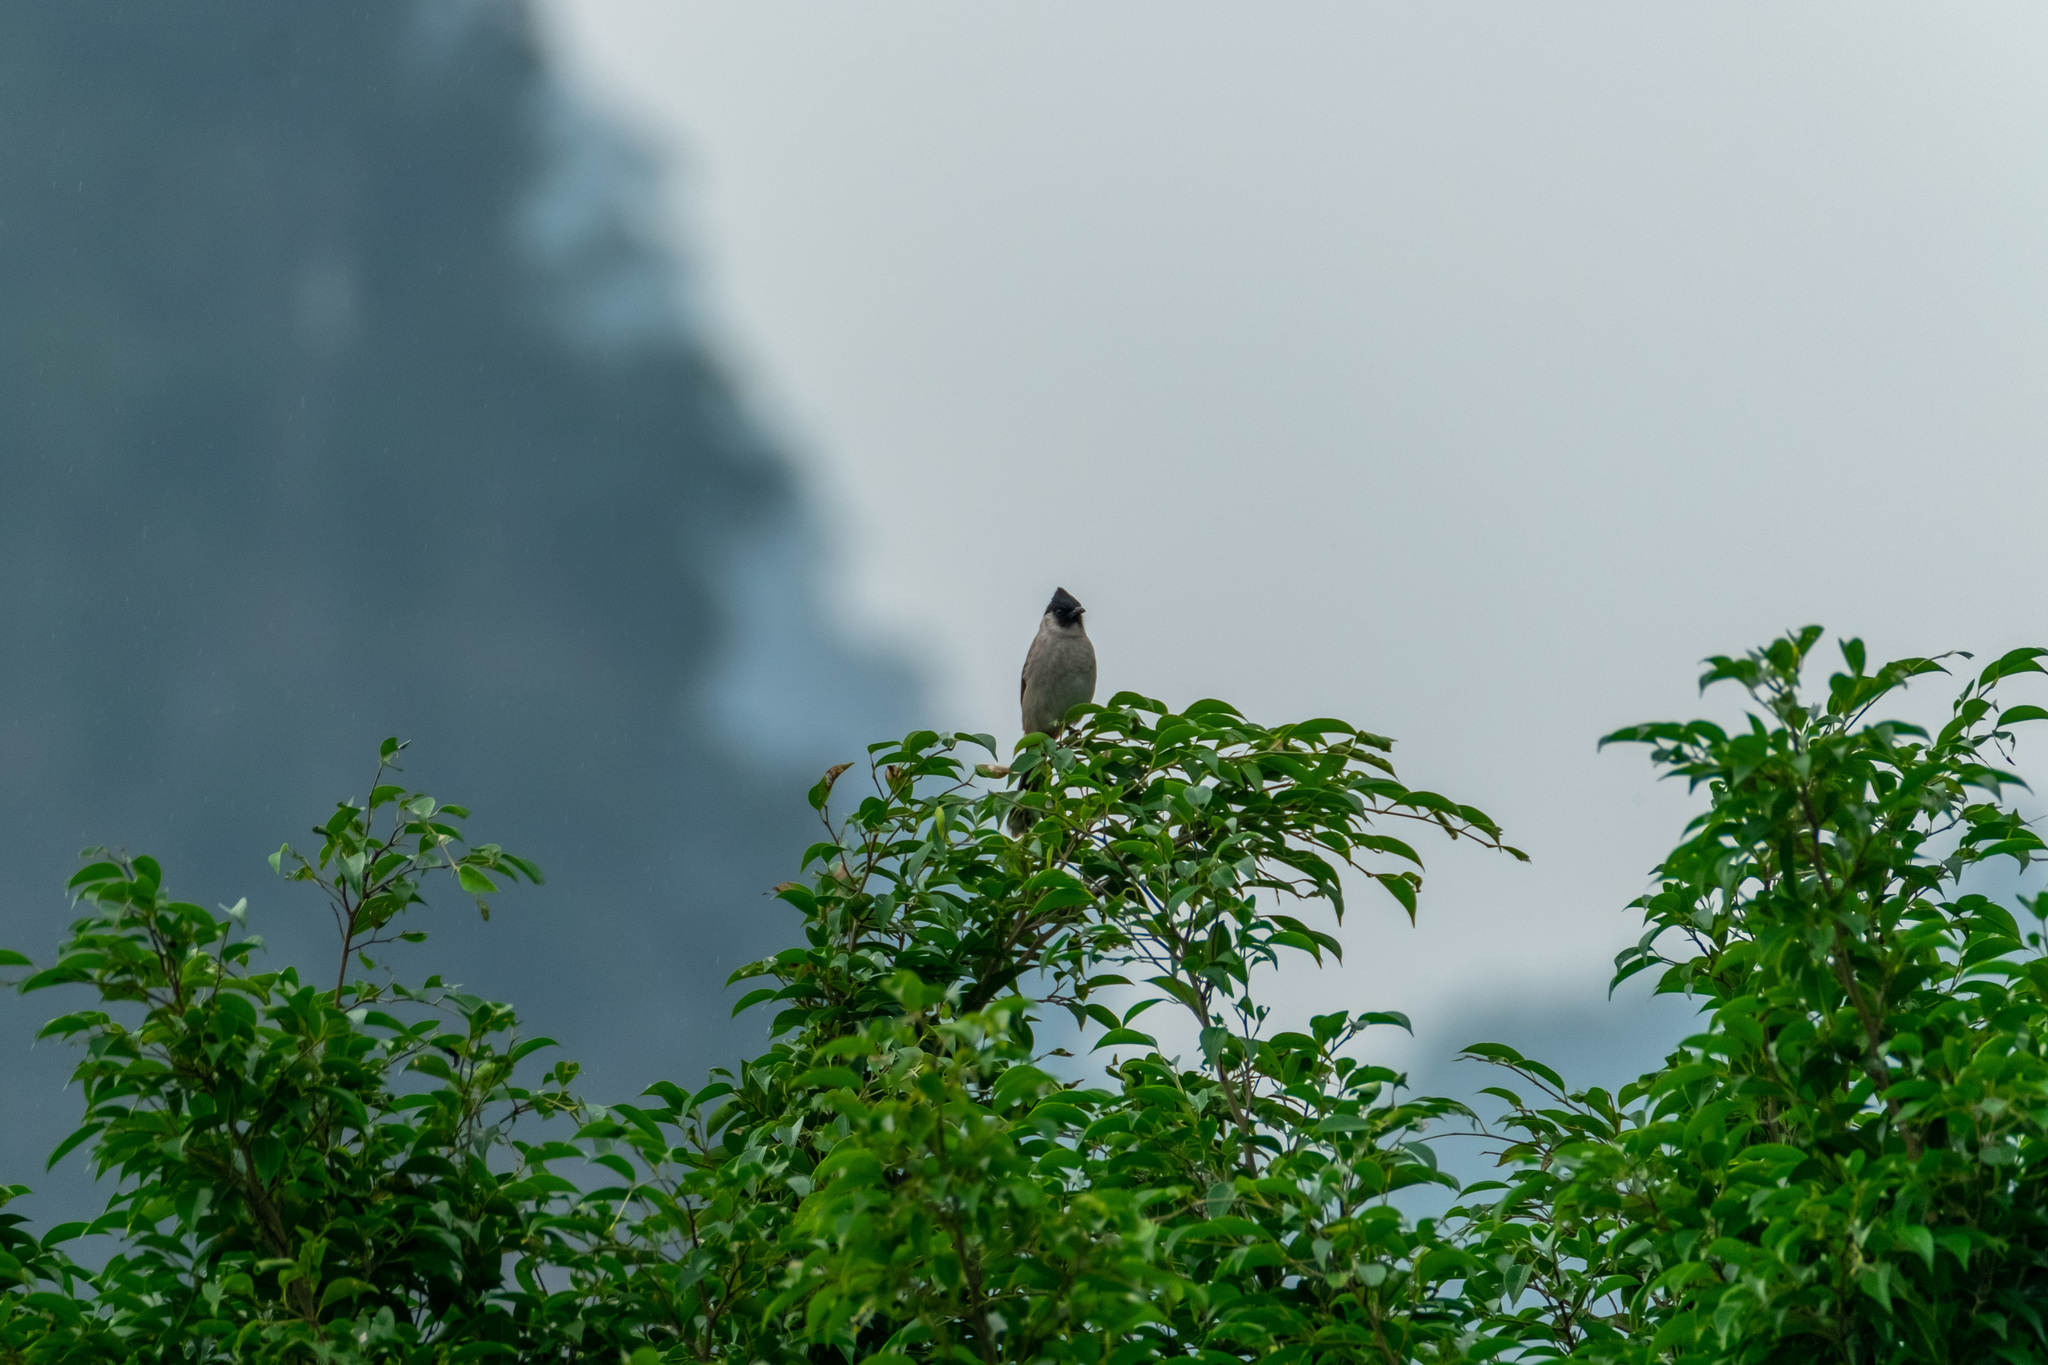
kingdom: Animalia
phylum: Chordata
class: Aves
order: Passeriformes
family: Pycnonotidae
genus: Pycnonotus
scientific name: Pycnonotus aurigaster
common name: Sooty-headed bulbul
